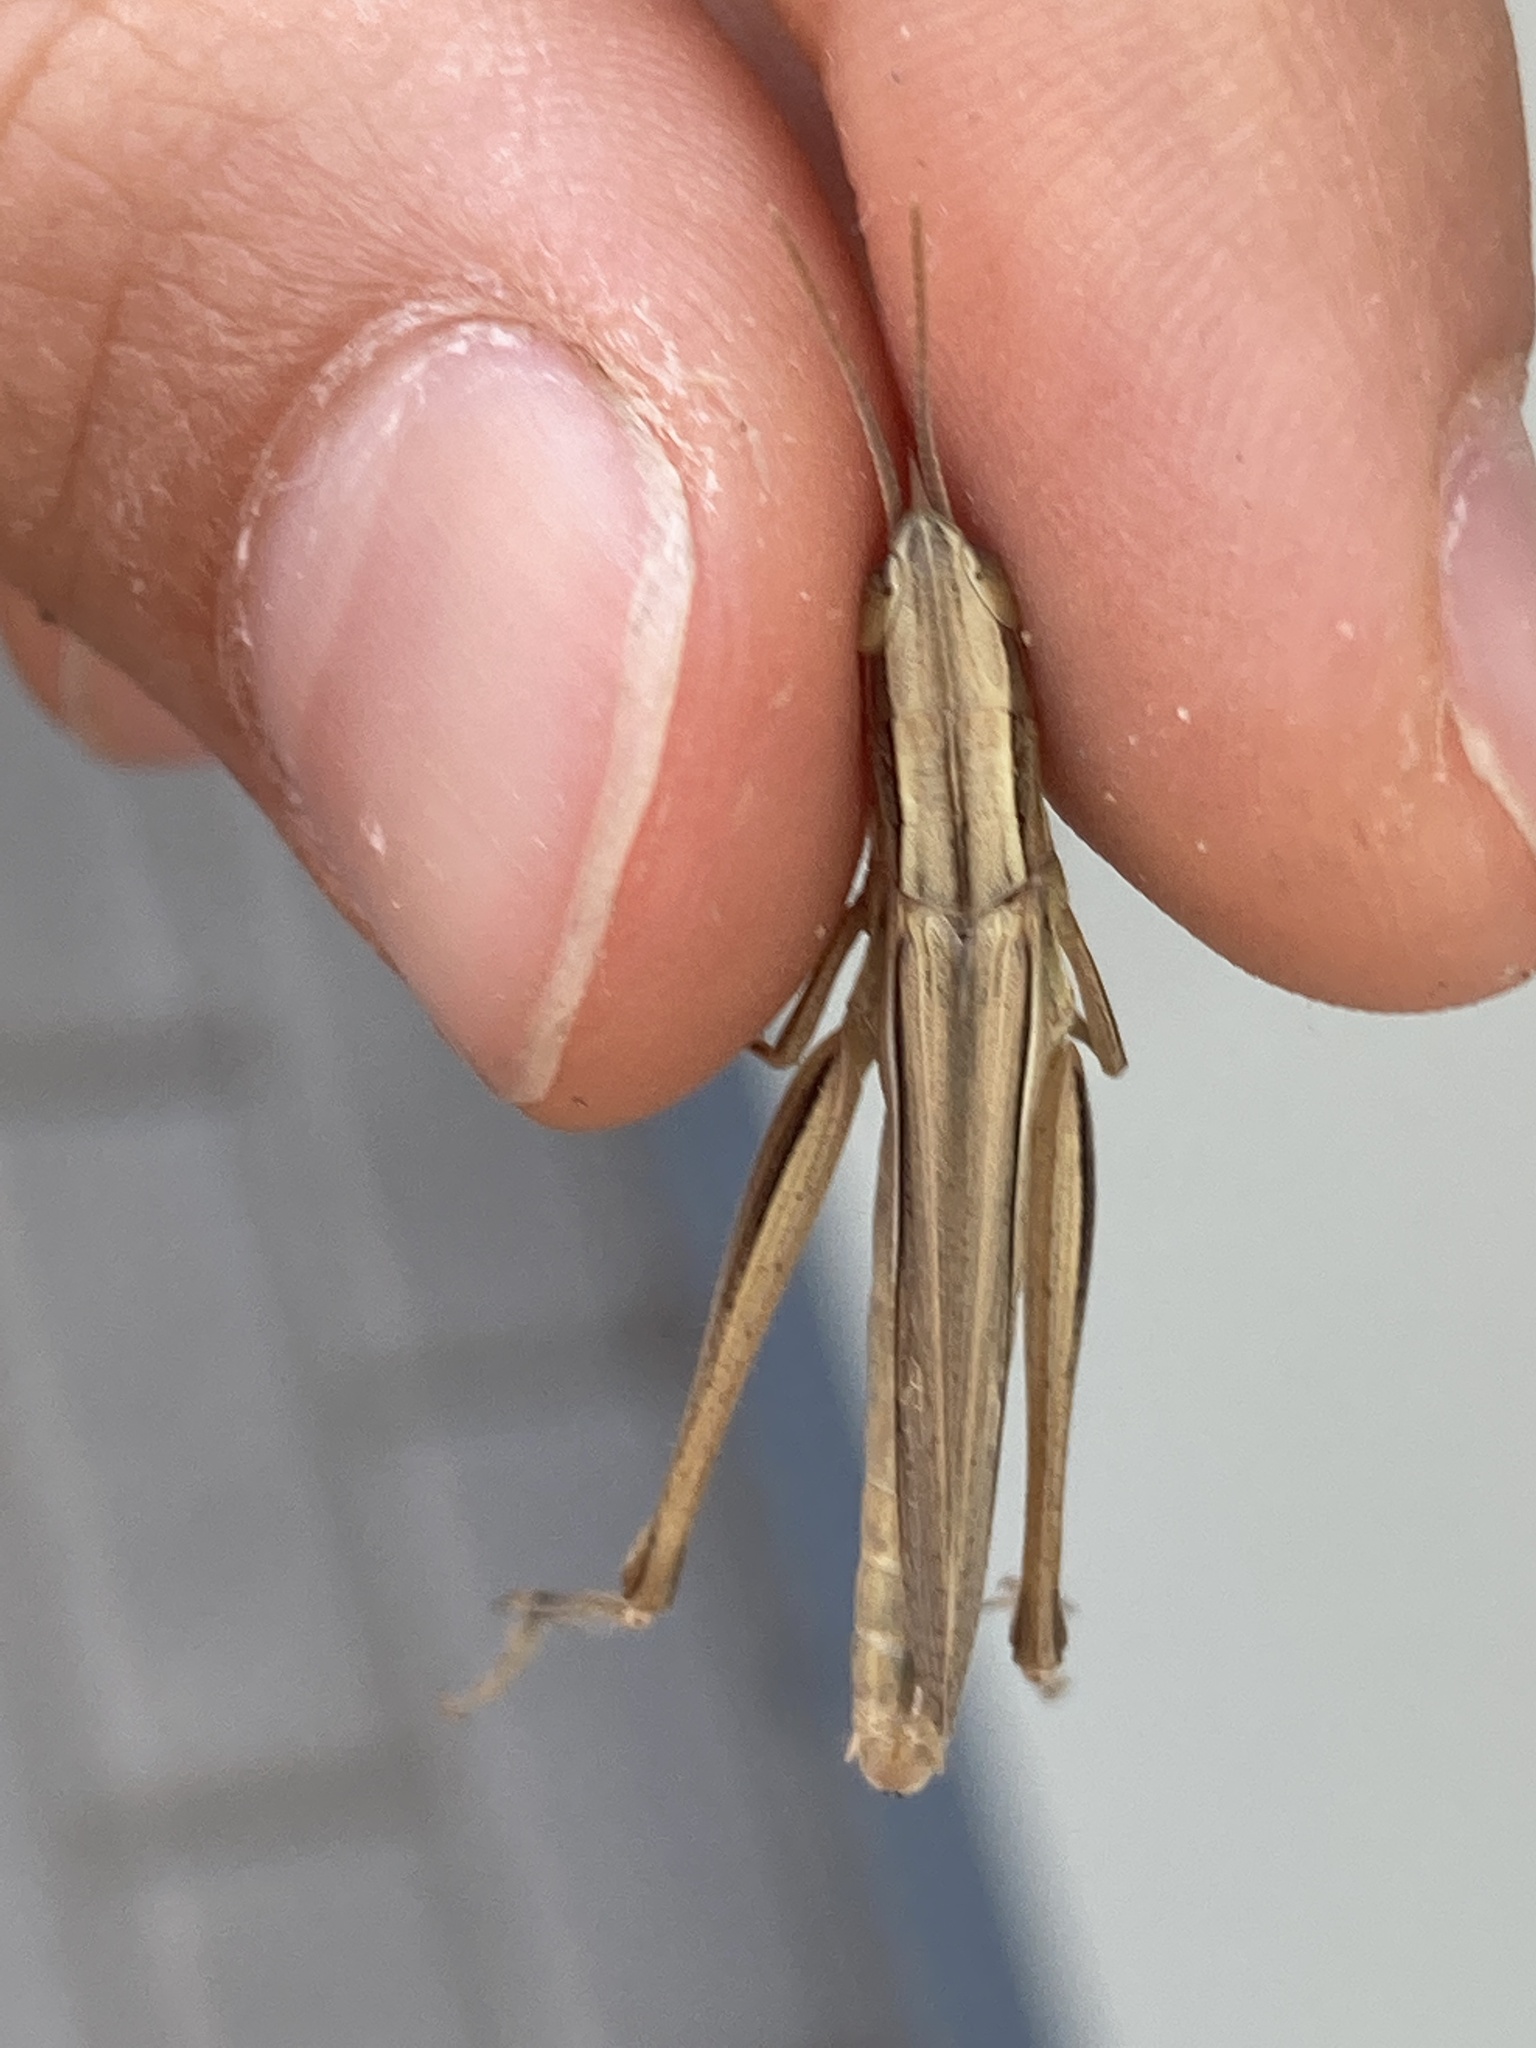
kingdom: Animalia
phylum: Arthropoda
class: Insecta
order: Orthoptera
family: Acrididae
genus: Chrysochraon
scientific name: Chrysochraon dispar
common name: Large gold grasshopper
